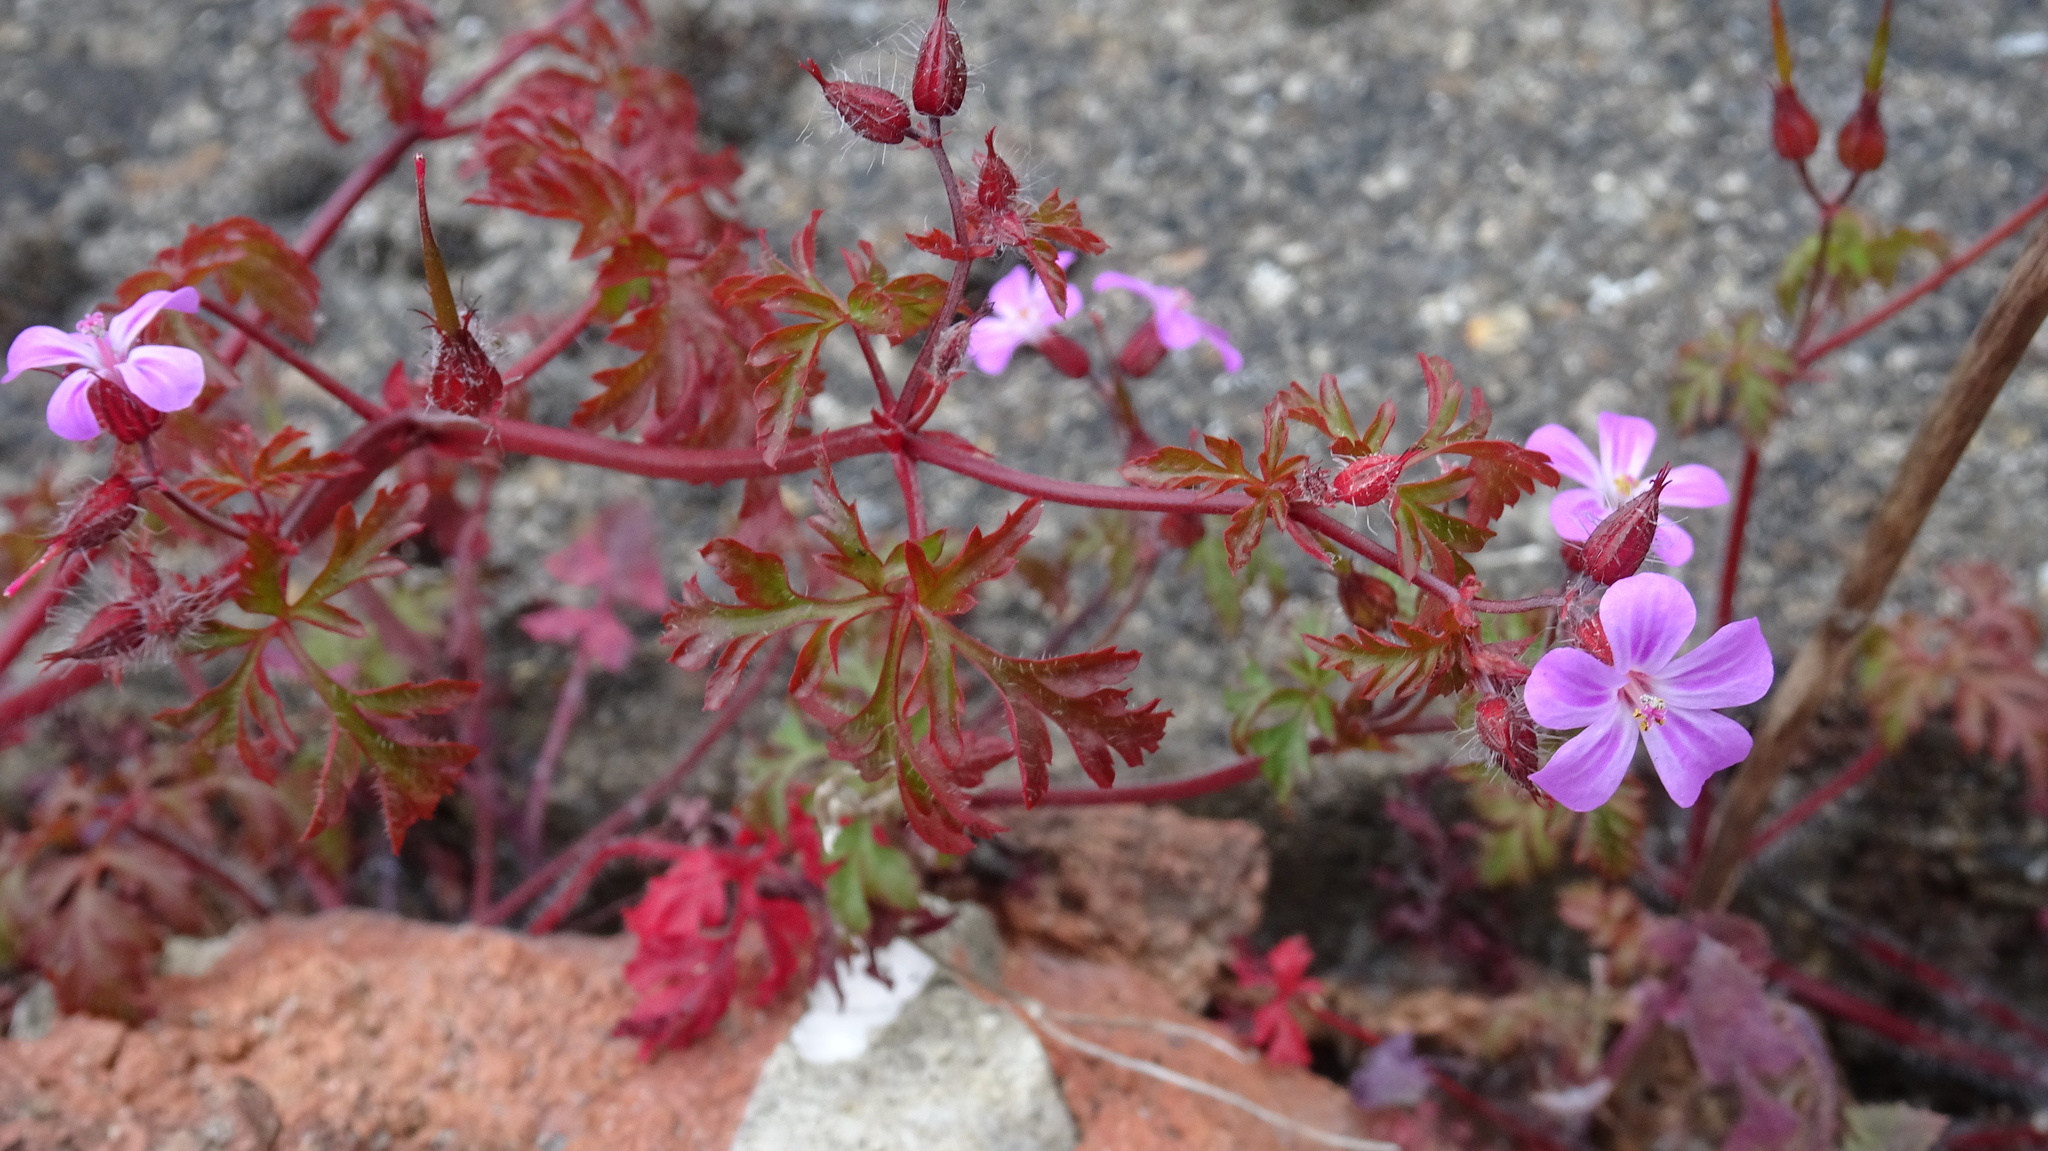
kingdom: Plantae
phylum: Tracheophyta
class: Magnoliopsida
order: Geraniales
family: Geraniaceae
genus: Geranium
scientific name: Geranium robertianum
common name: Herb-robert
